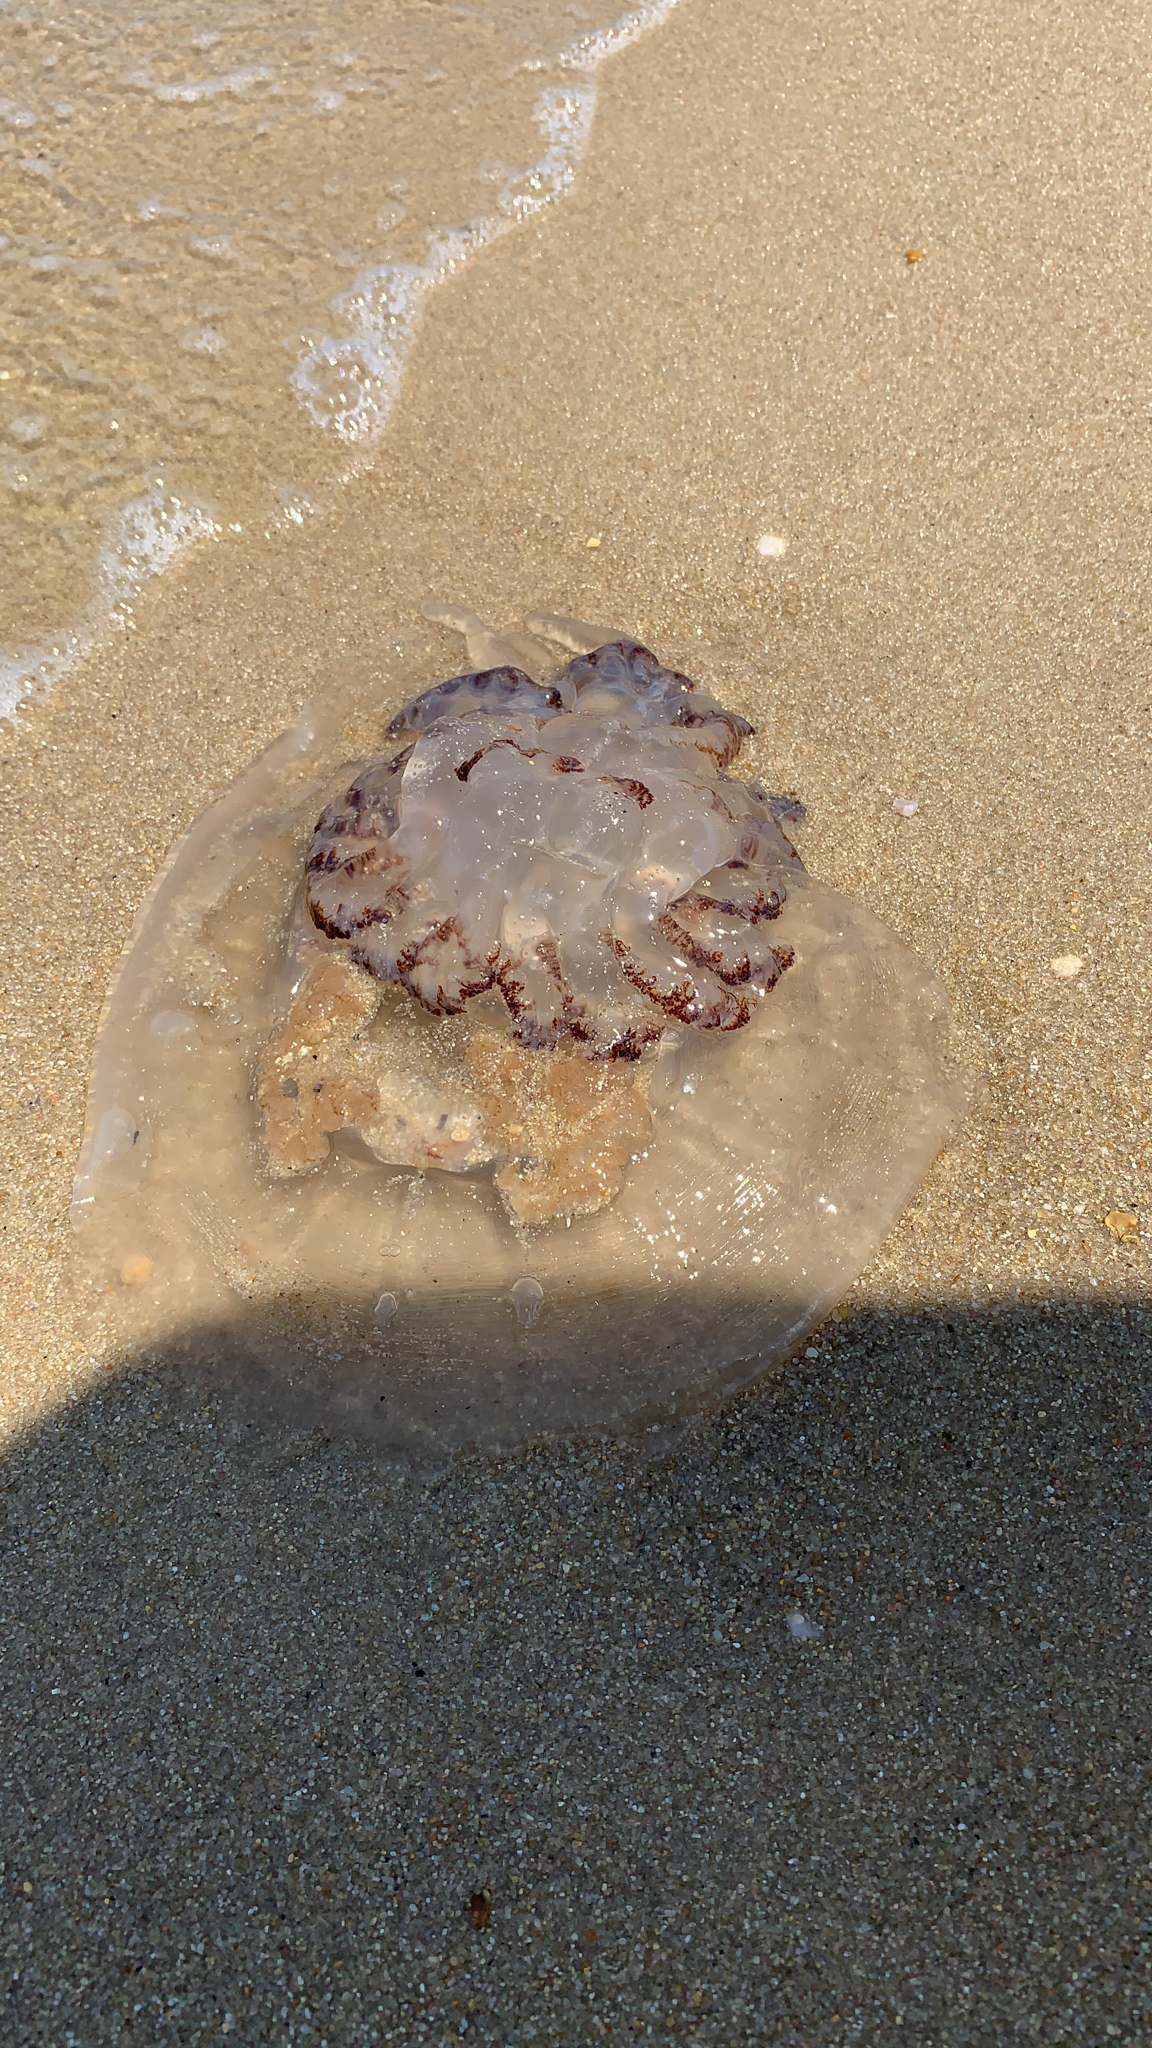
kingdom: Animalia
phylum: Cnidaria
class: Scyphozoa
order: Rhizostomeae
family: Rhizostomatidae
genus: Rhopilema
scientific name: Rhopilema verrilli
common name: Mushroom cap jellyfish
